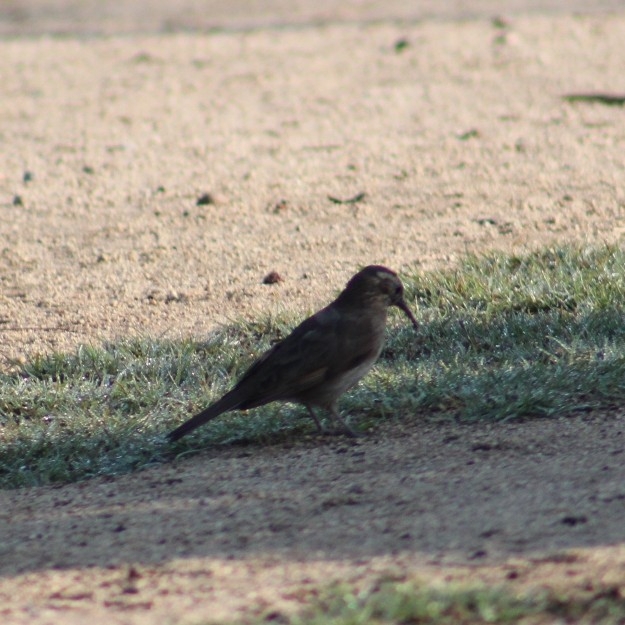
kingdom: Animalia
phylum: Chordata
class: Aves
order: Passeriformes
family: Furnariidae
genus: Upucerthia
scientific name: Upucerthia saturatior
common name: Patagonian forest earthcreeper
